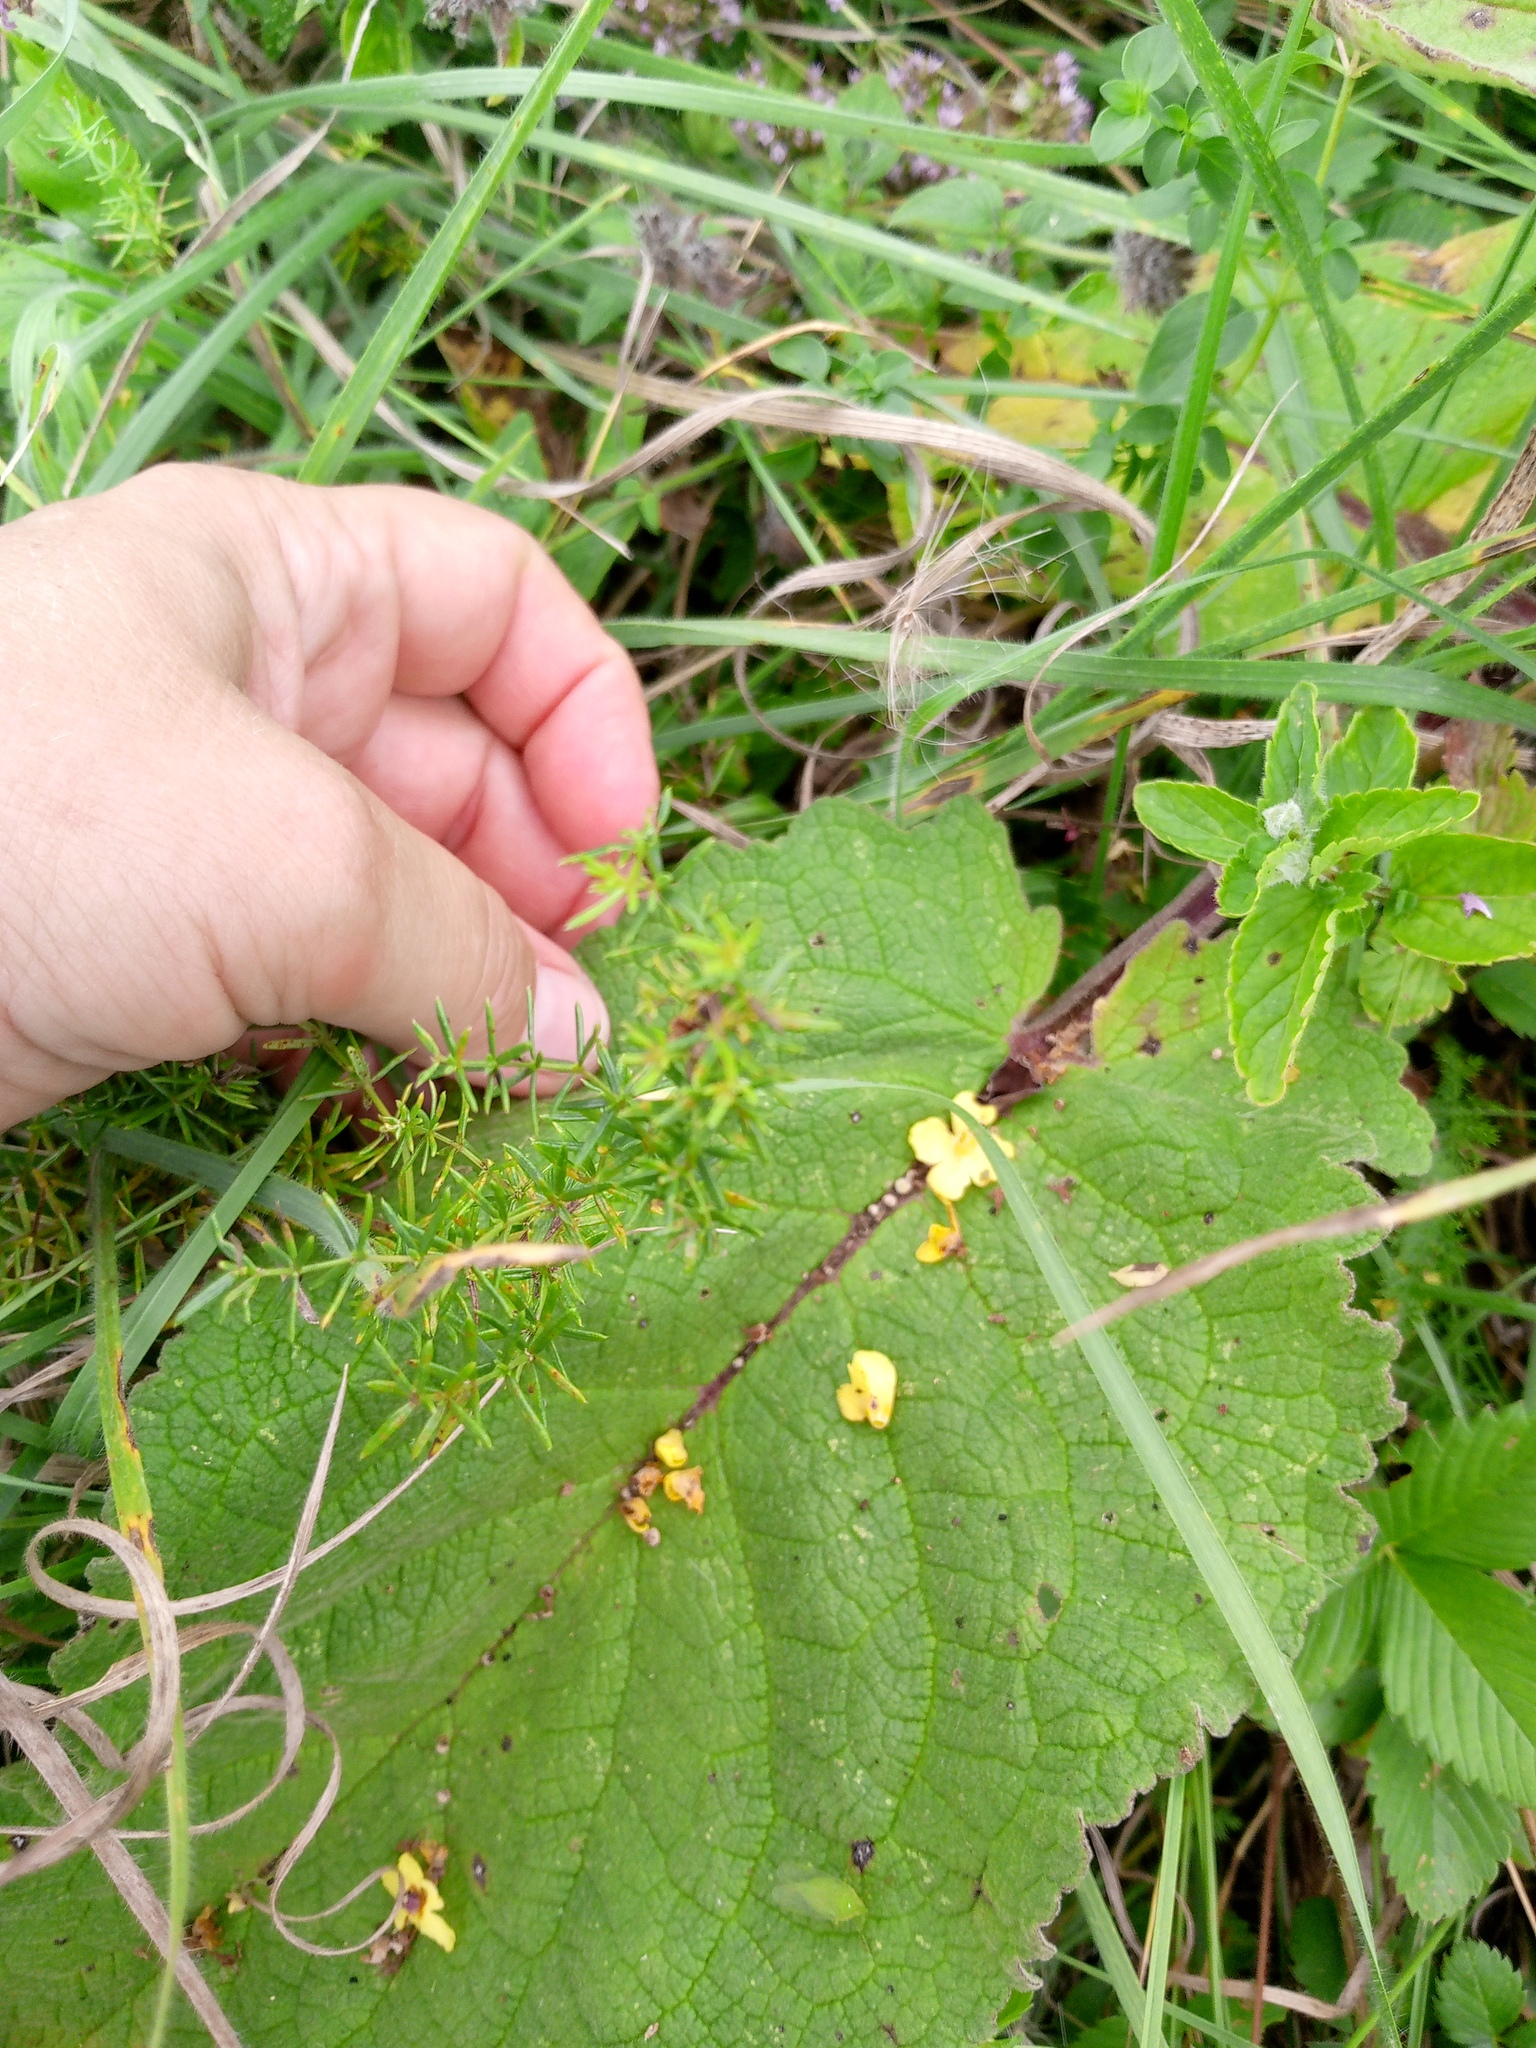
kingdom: Plantae
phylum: Tracheophyta
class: Magnoliopsida
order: Lamiales
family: Scrophulariaceae
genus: Verbascum
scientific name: Verbascum nigrum
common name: Dark mullein
